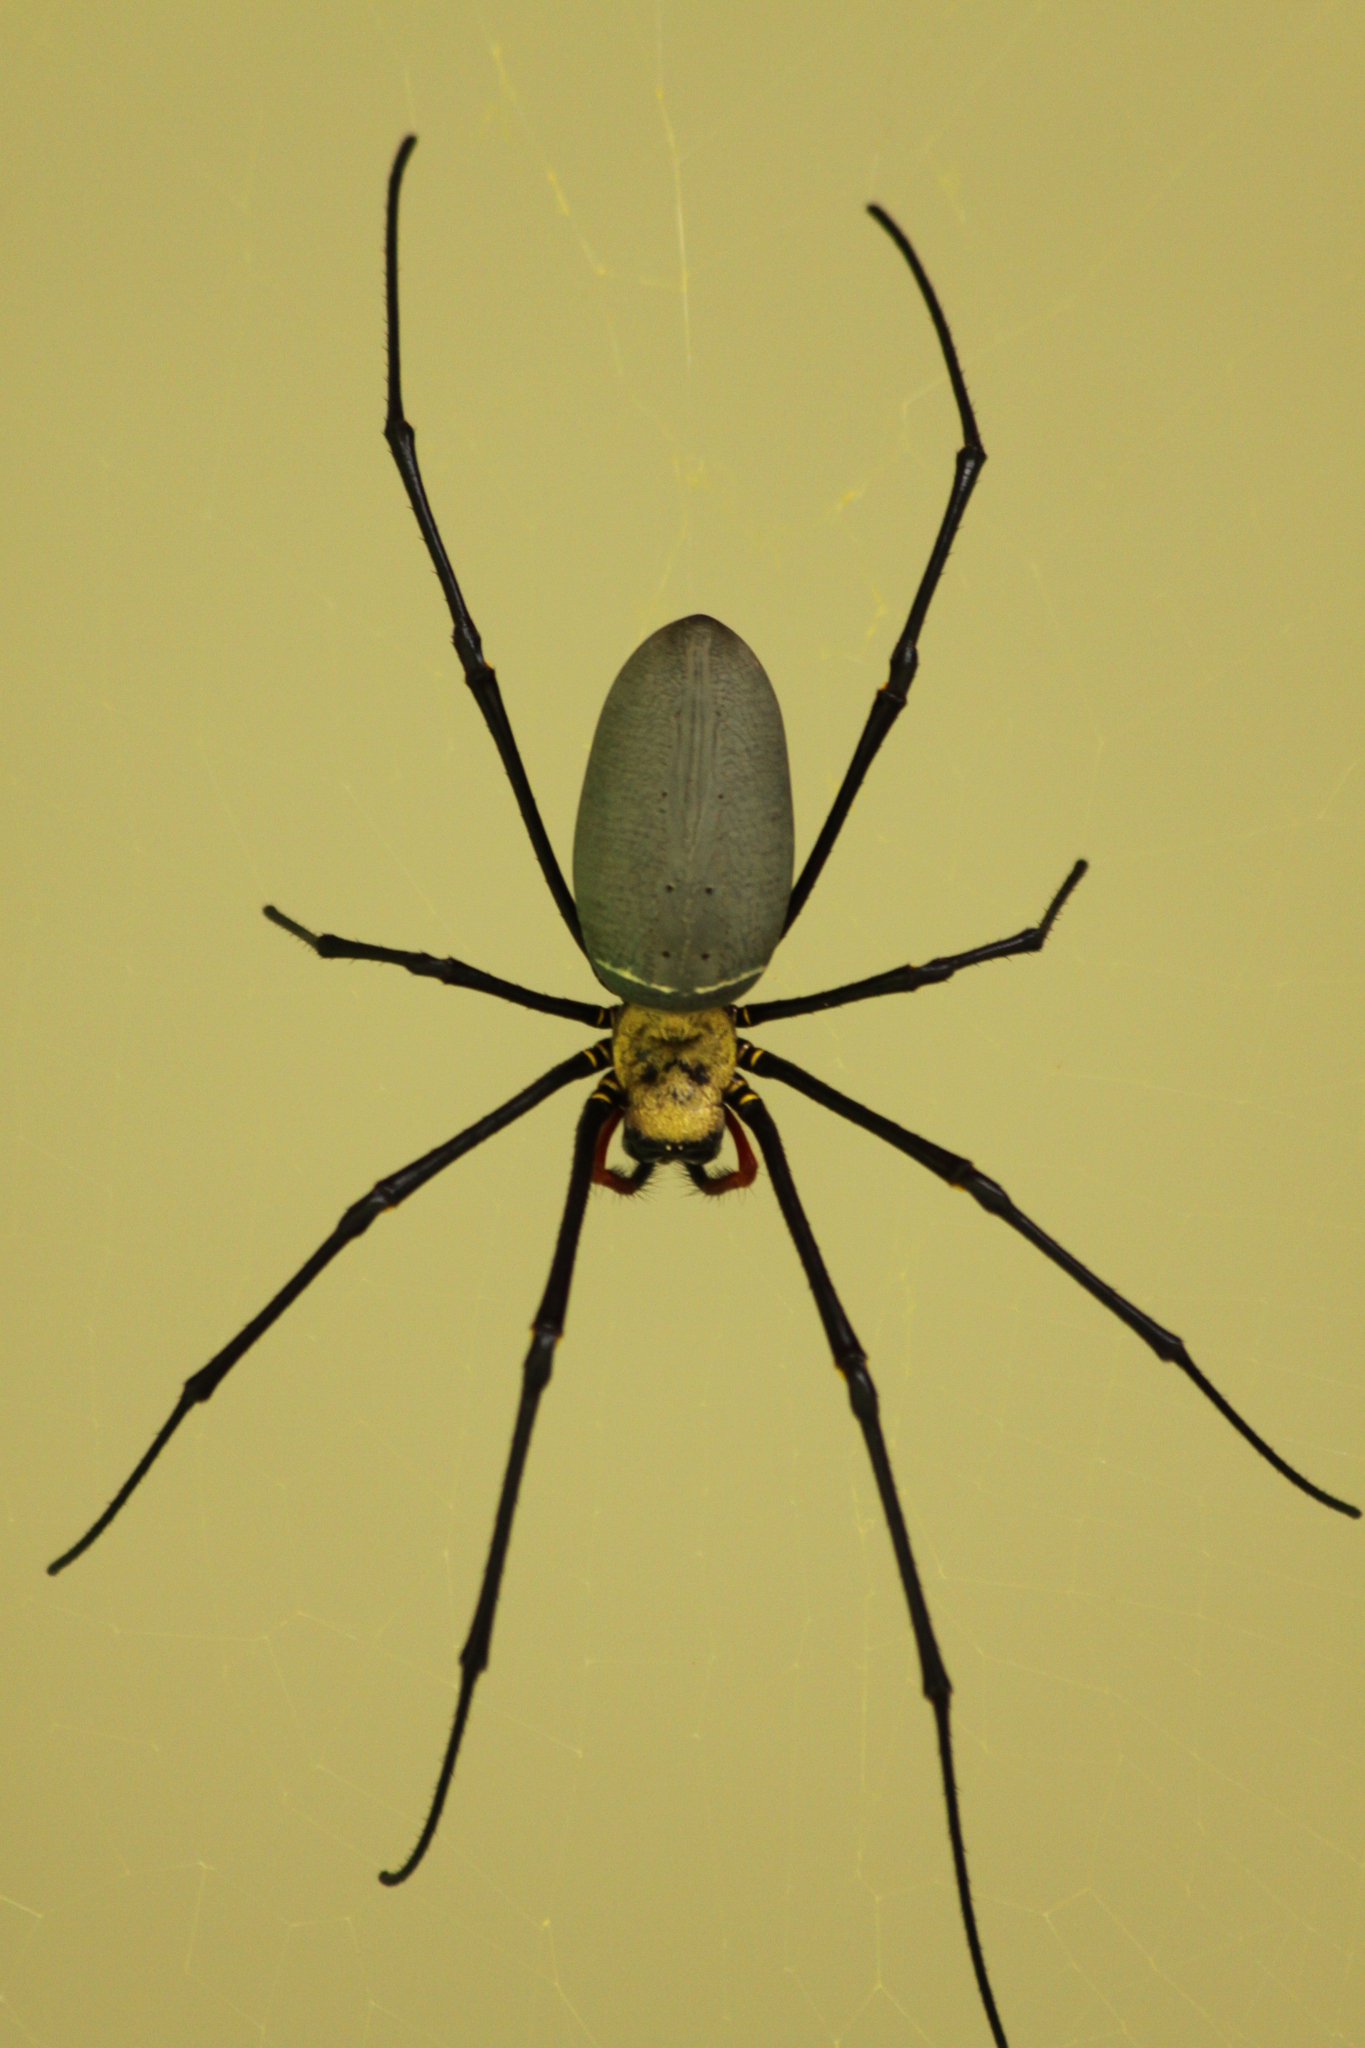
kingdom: Animalia
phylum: Arthropoda
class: Arachnida
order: Araneae
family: Araneidae
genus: Nephila
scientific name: Nephila pilipes
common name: Giant golden orb weaver
